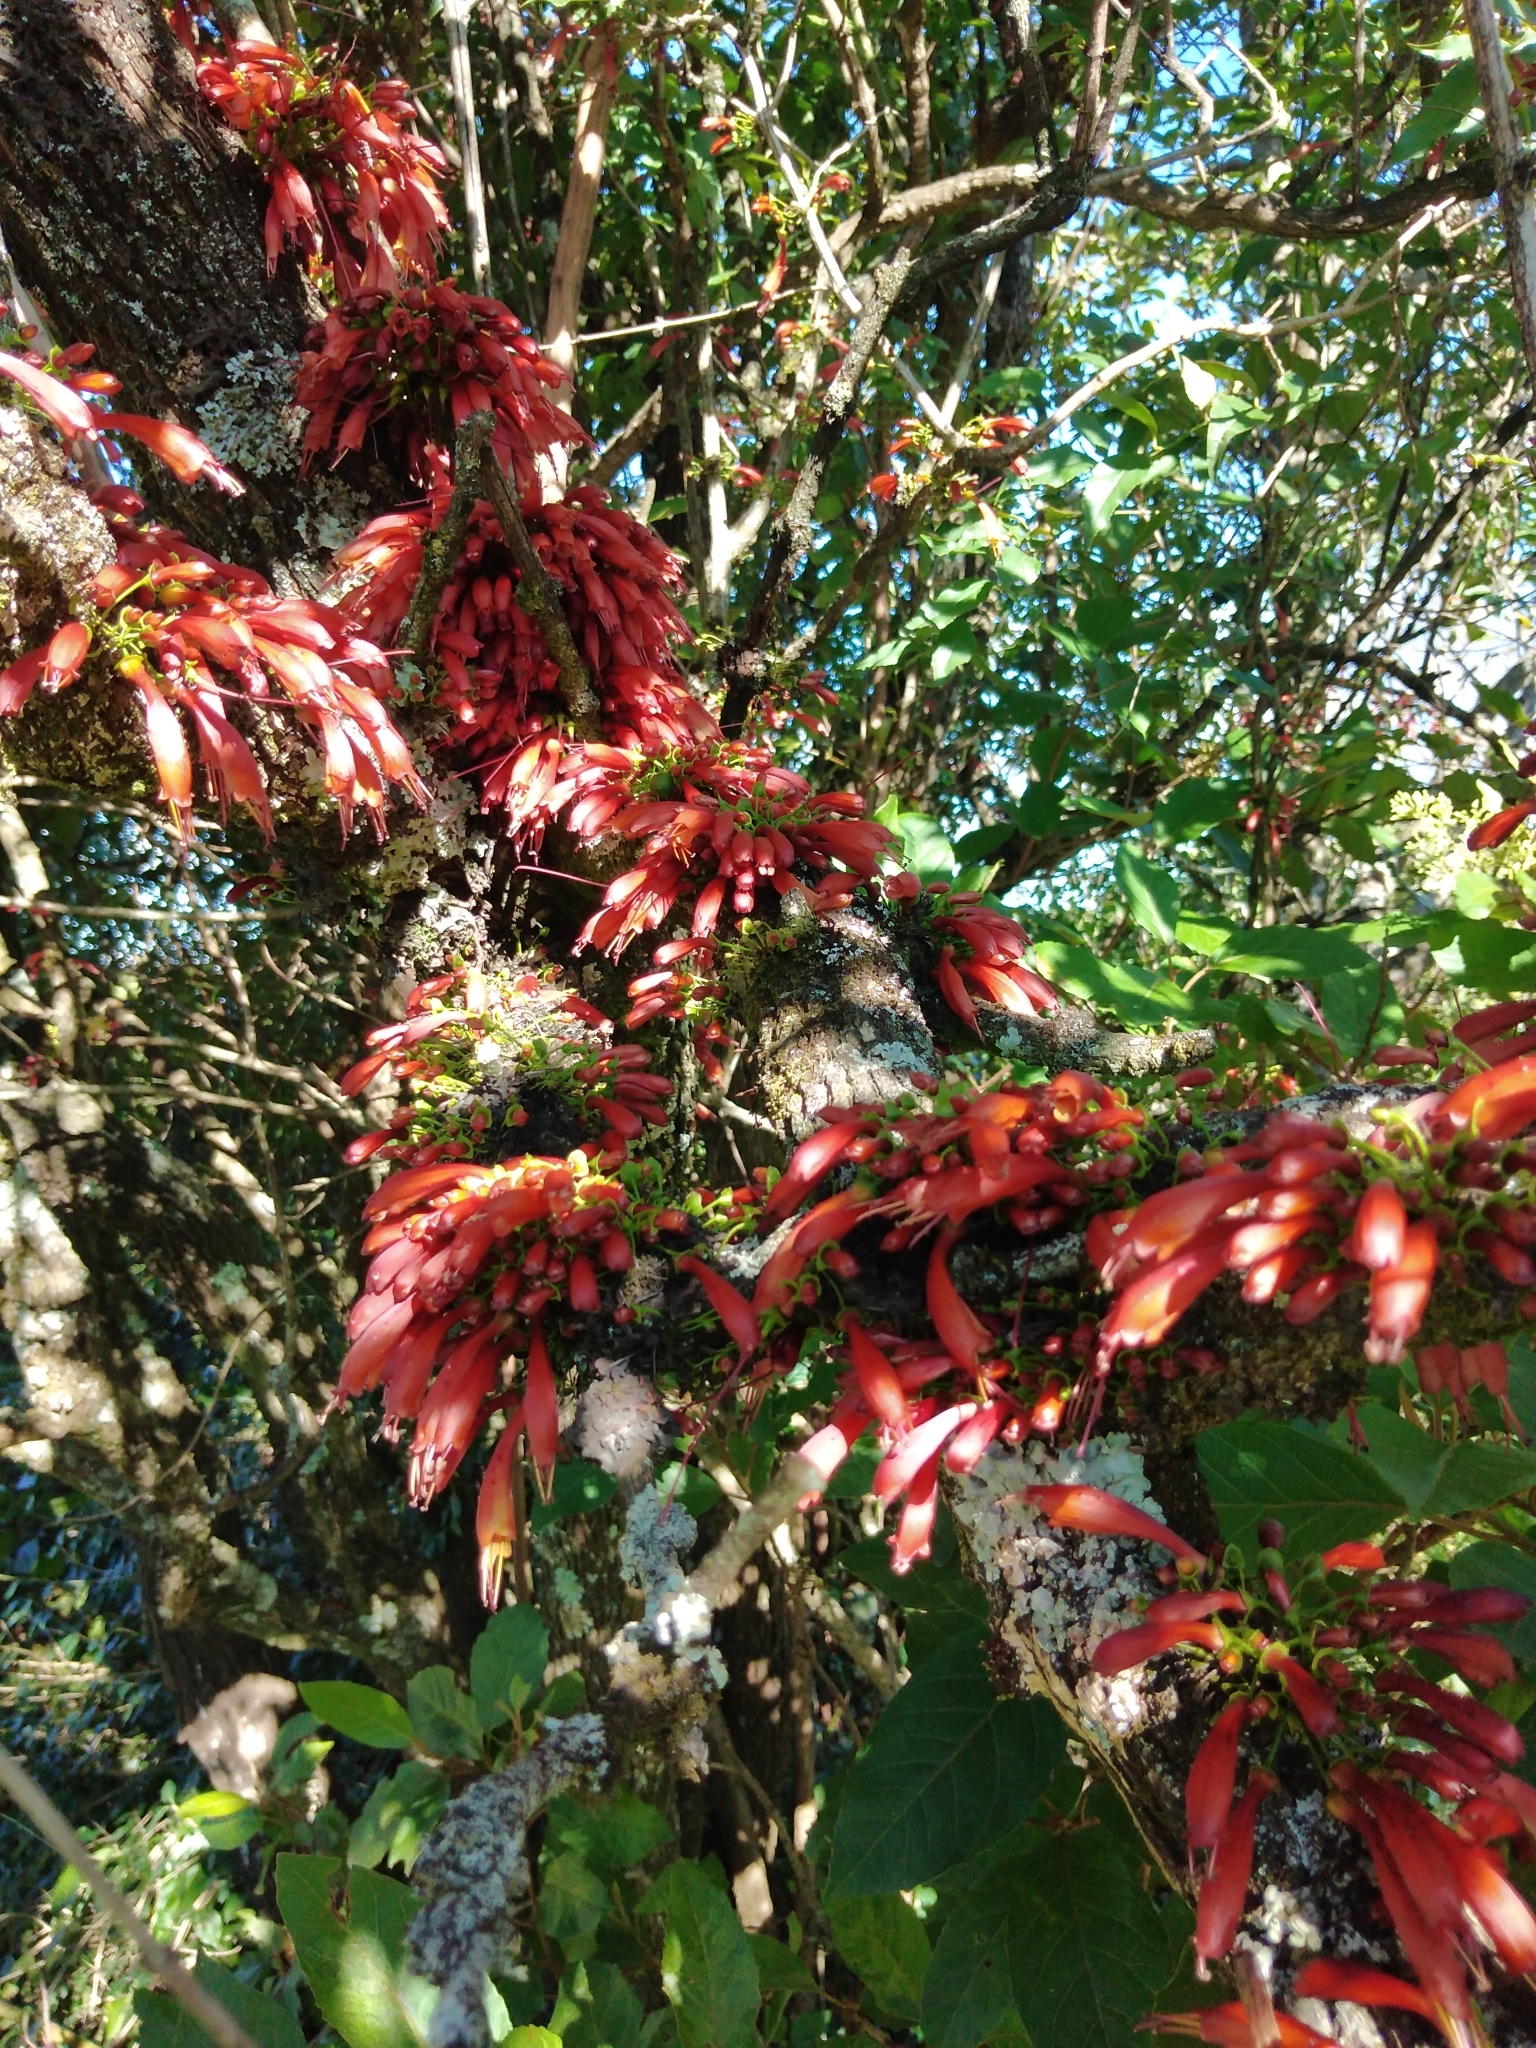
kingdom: Plantae
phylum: Tracheophyta
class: Magnoliopsida
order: Lamiales
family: Stilbaceae
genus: Halleria
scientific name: Halleria lucida
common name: Tree fuschia
